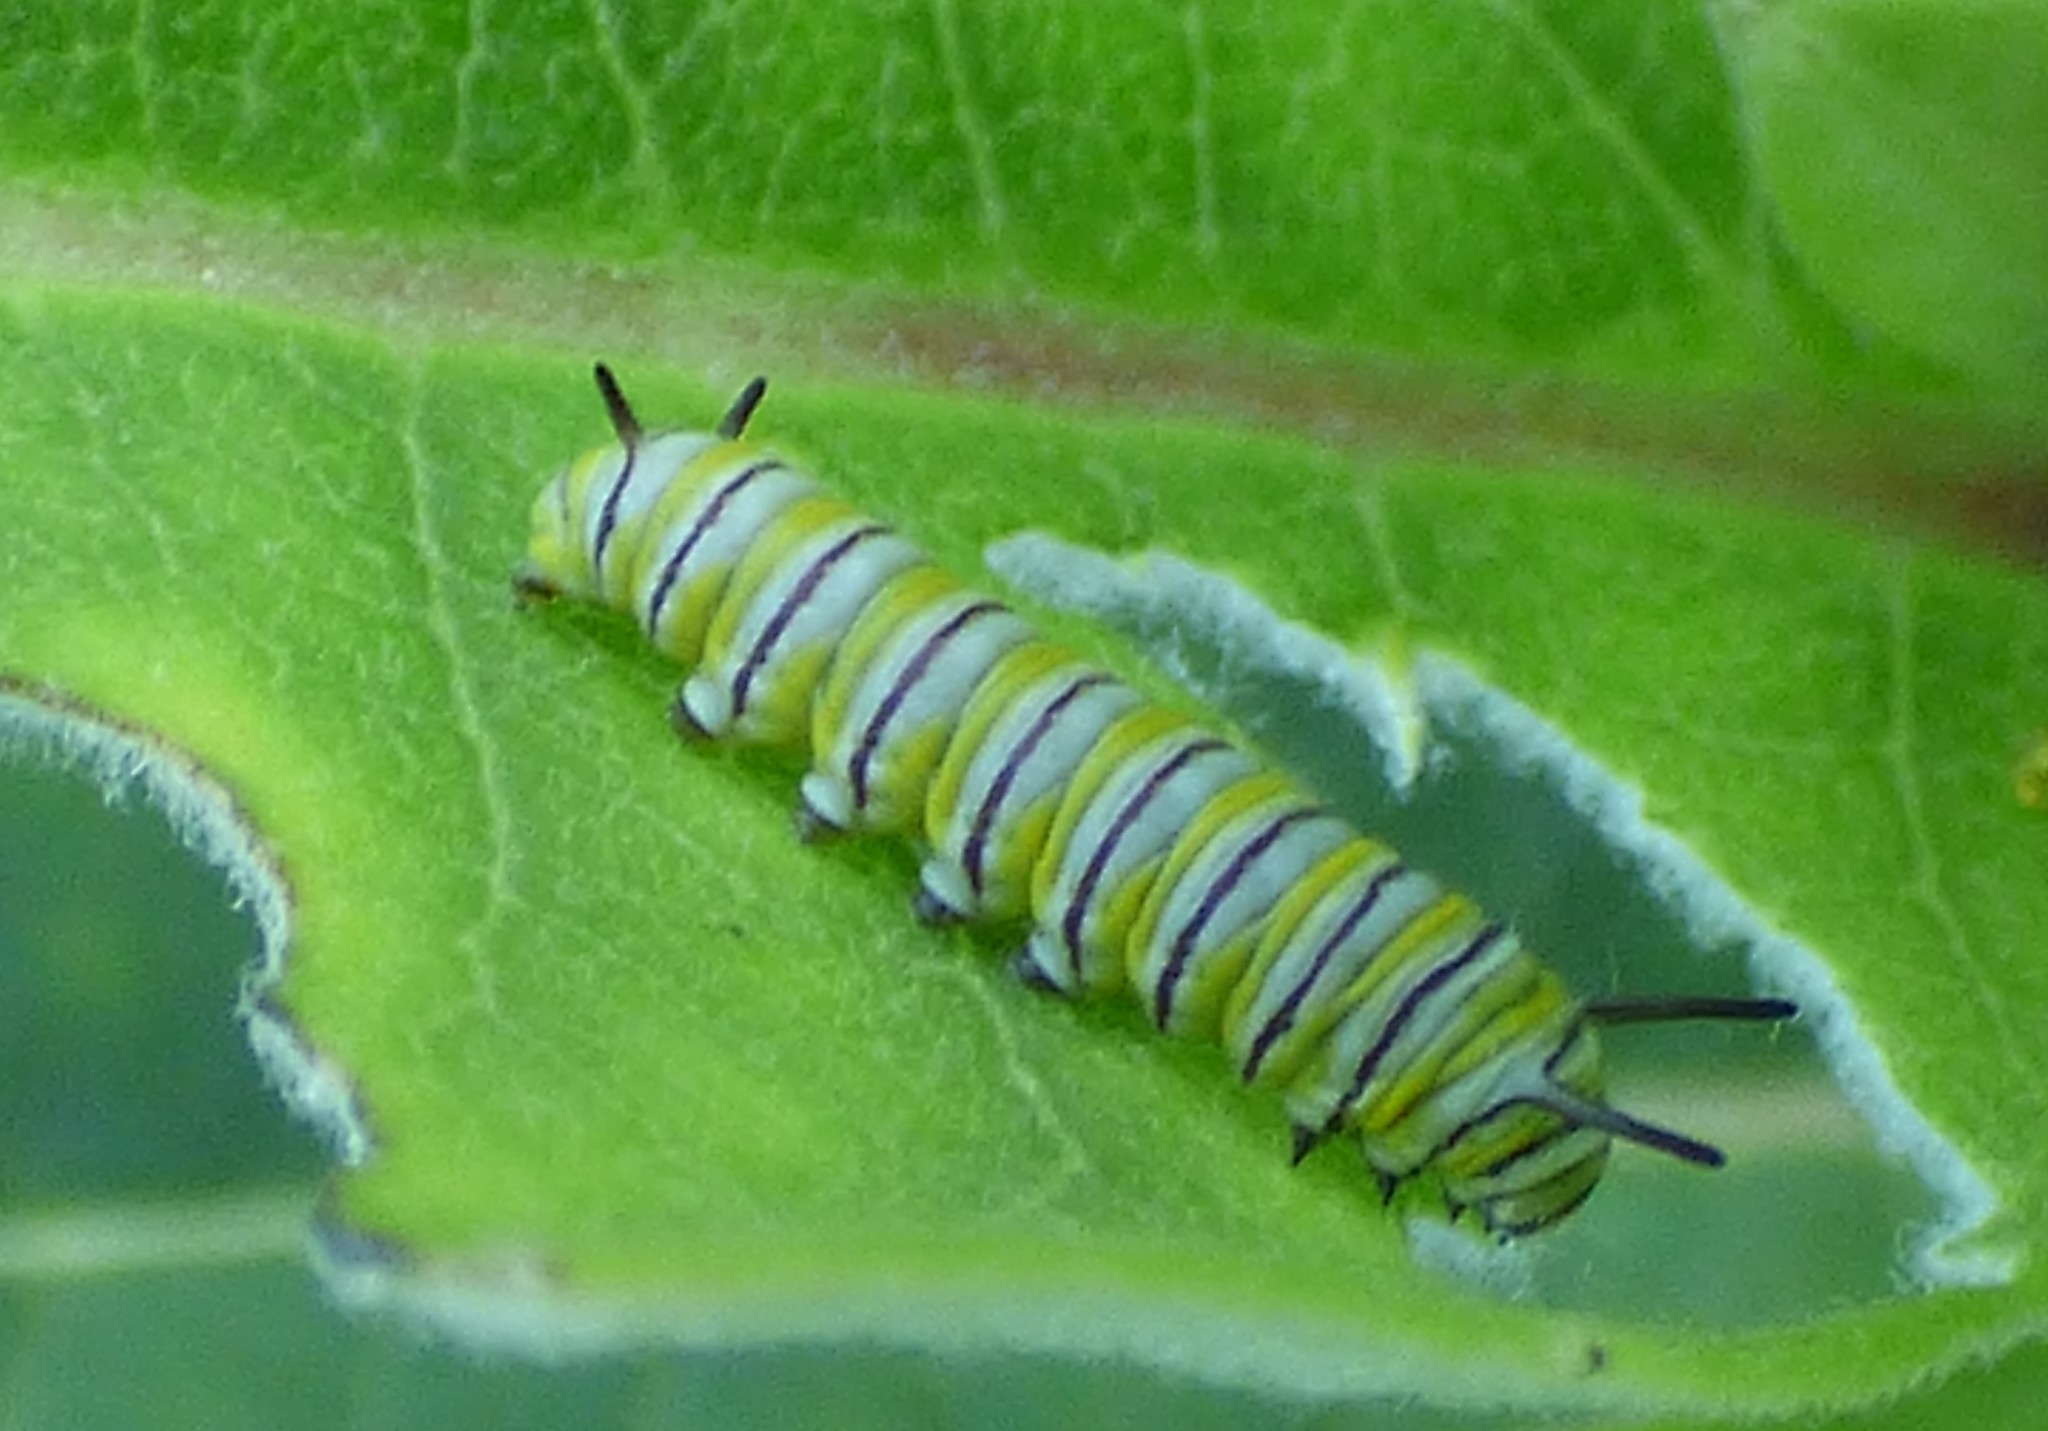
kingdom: Animalia
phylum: Arthropoda
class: Insecta
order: Lepidoptera
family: Nymphalidae
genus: Danaus
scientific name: Danaus plexippus
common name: Monarch
